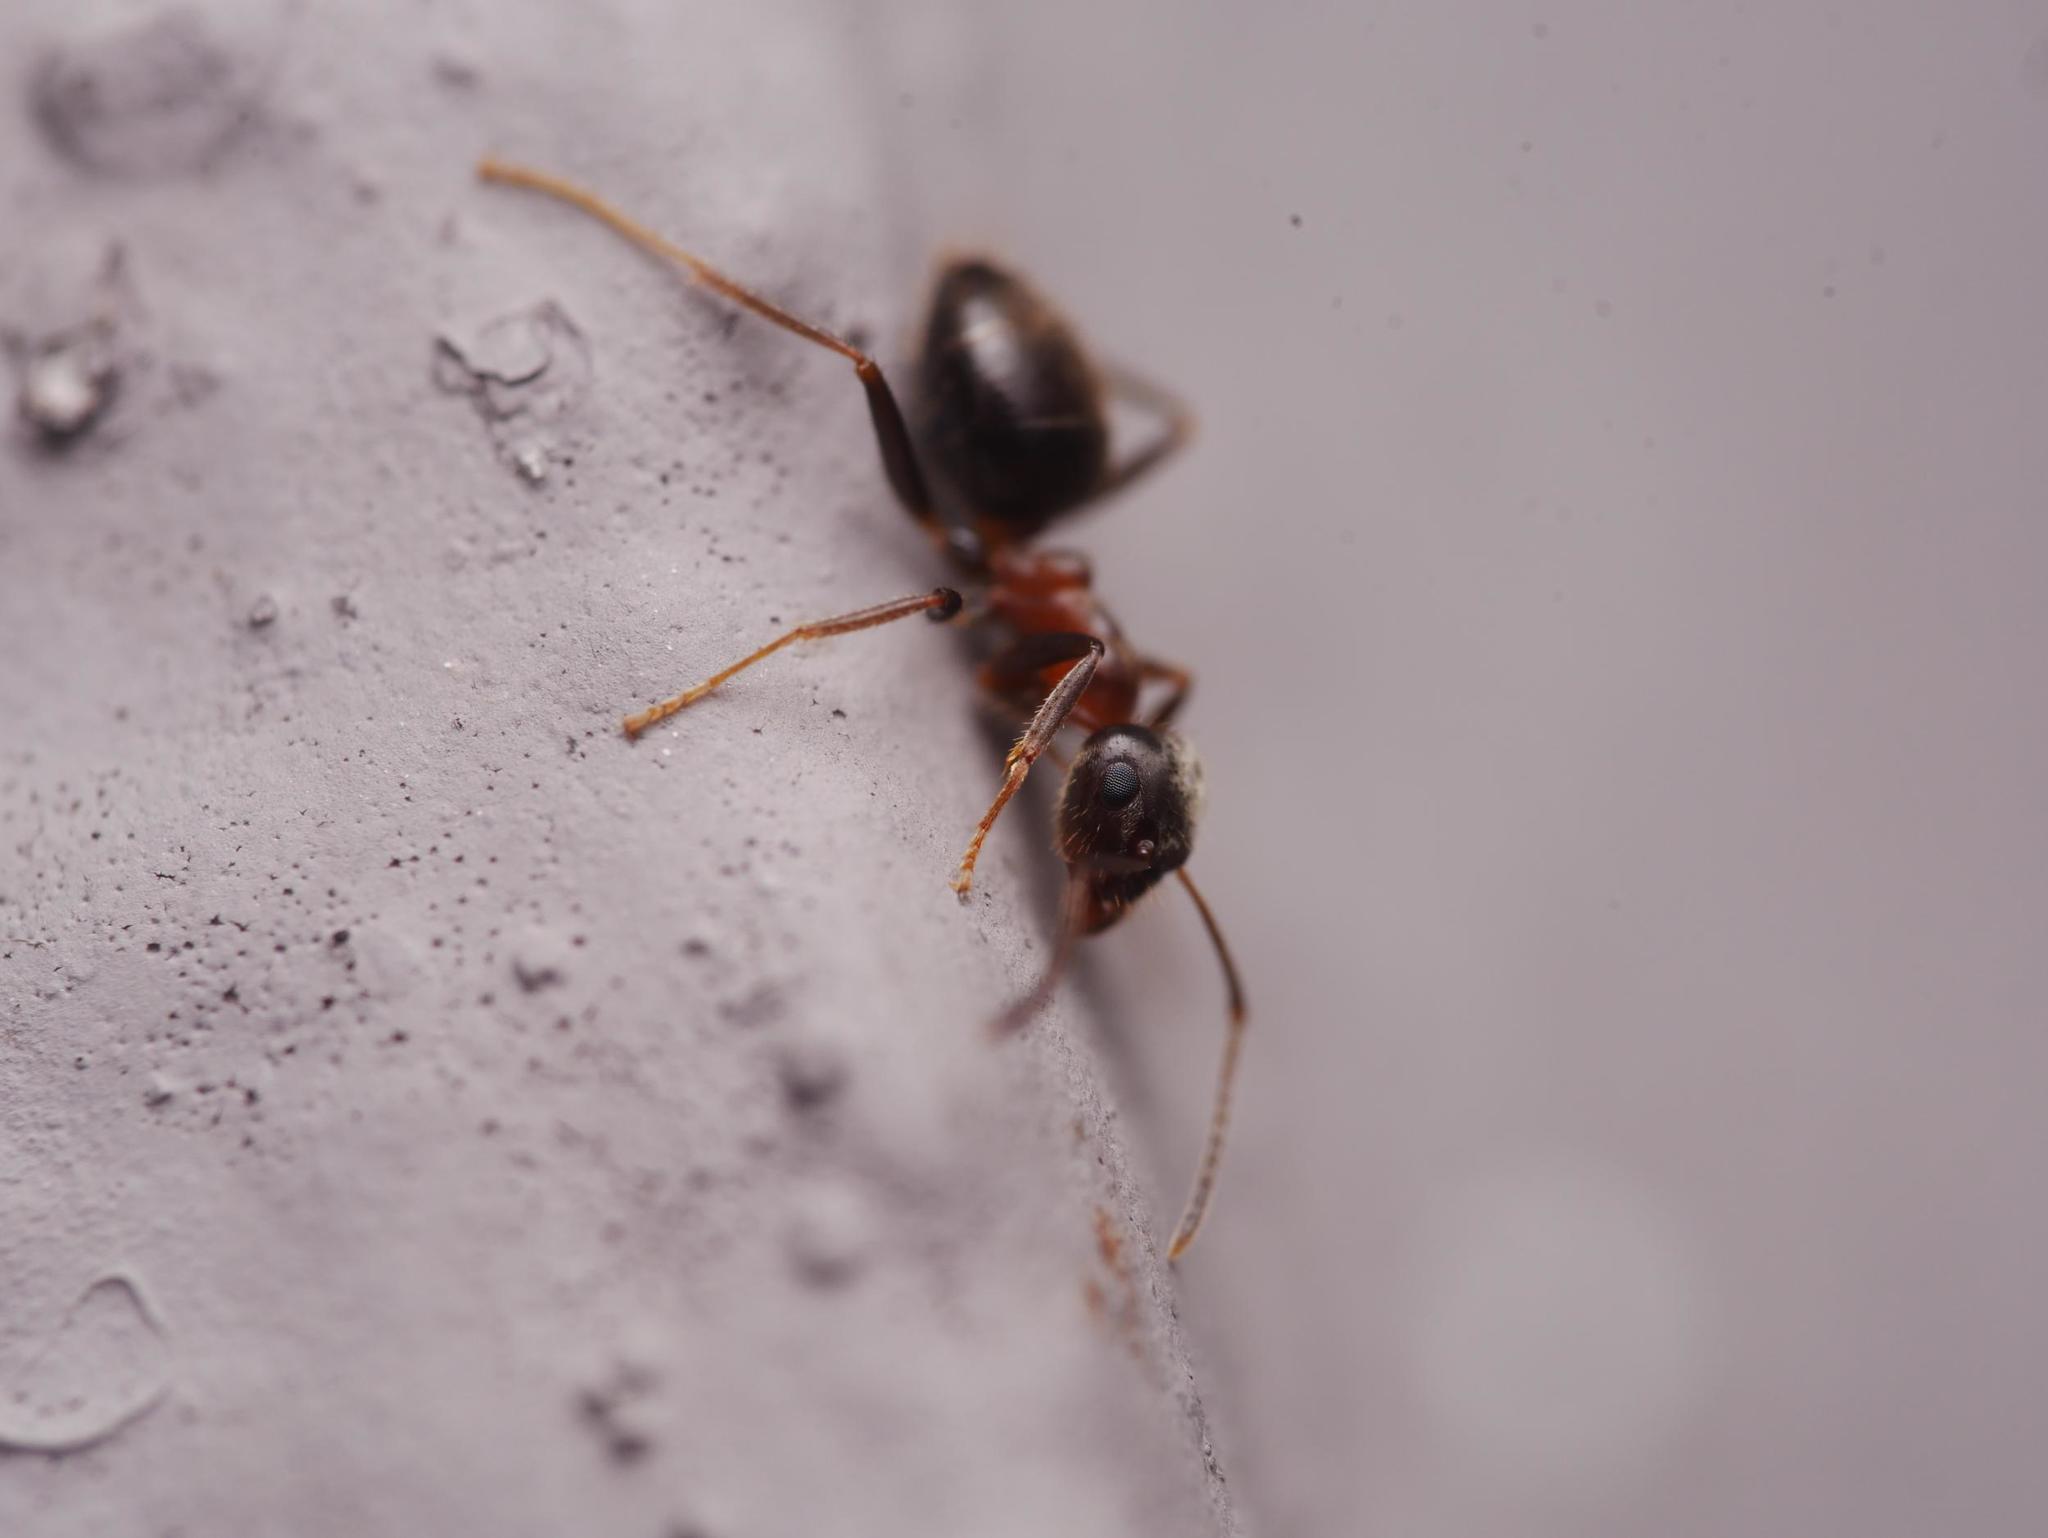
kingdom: Animalia
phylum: Arthropoda
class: Insecta
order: Hymenoptera
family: Formicidae
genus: Lasius
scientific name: Lasius emarginatus
